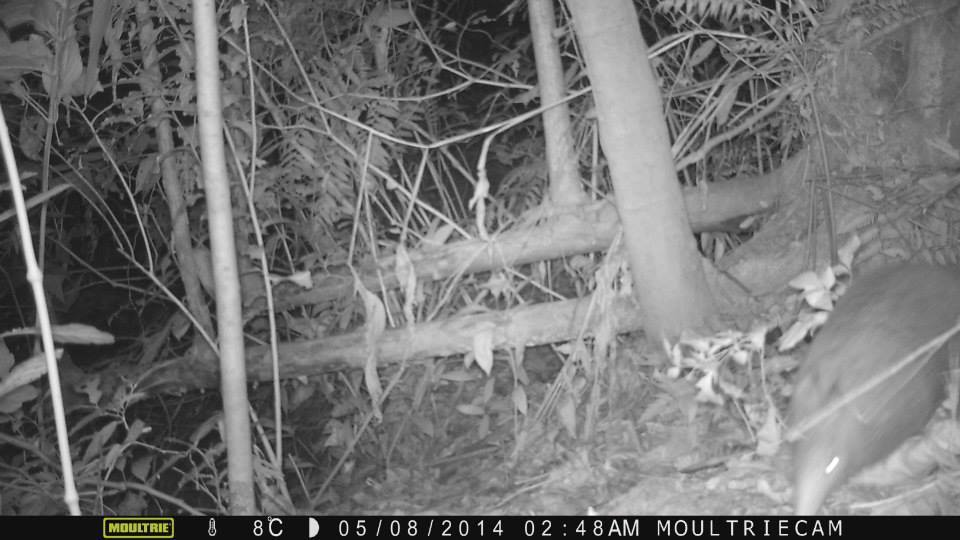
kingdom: Animalia
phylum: Chordata
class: Mammalia
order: Cingulata
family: Dasypodidae
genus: Dasypus
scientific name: Dasypus novemcinctus
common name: Nine-banded armadillo
